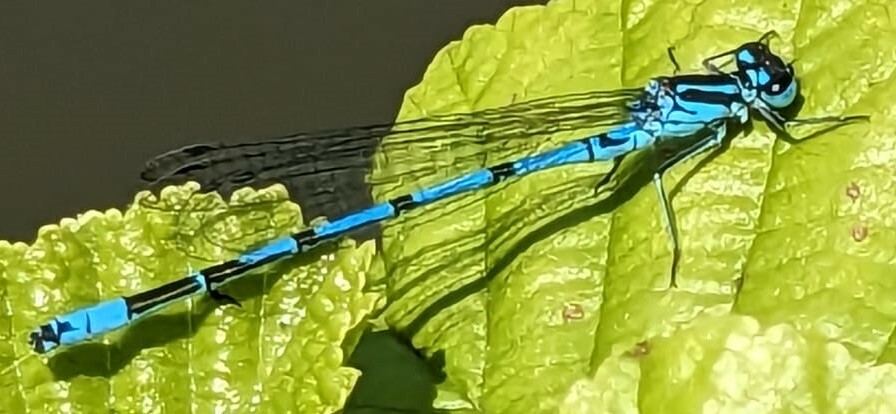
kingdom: Animalia
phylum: Arthropoda
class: Insecta
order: Odonata
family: Coenagrionidae
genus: Coenagrion
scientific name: Coenagrion puella
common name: Azure damselfly
